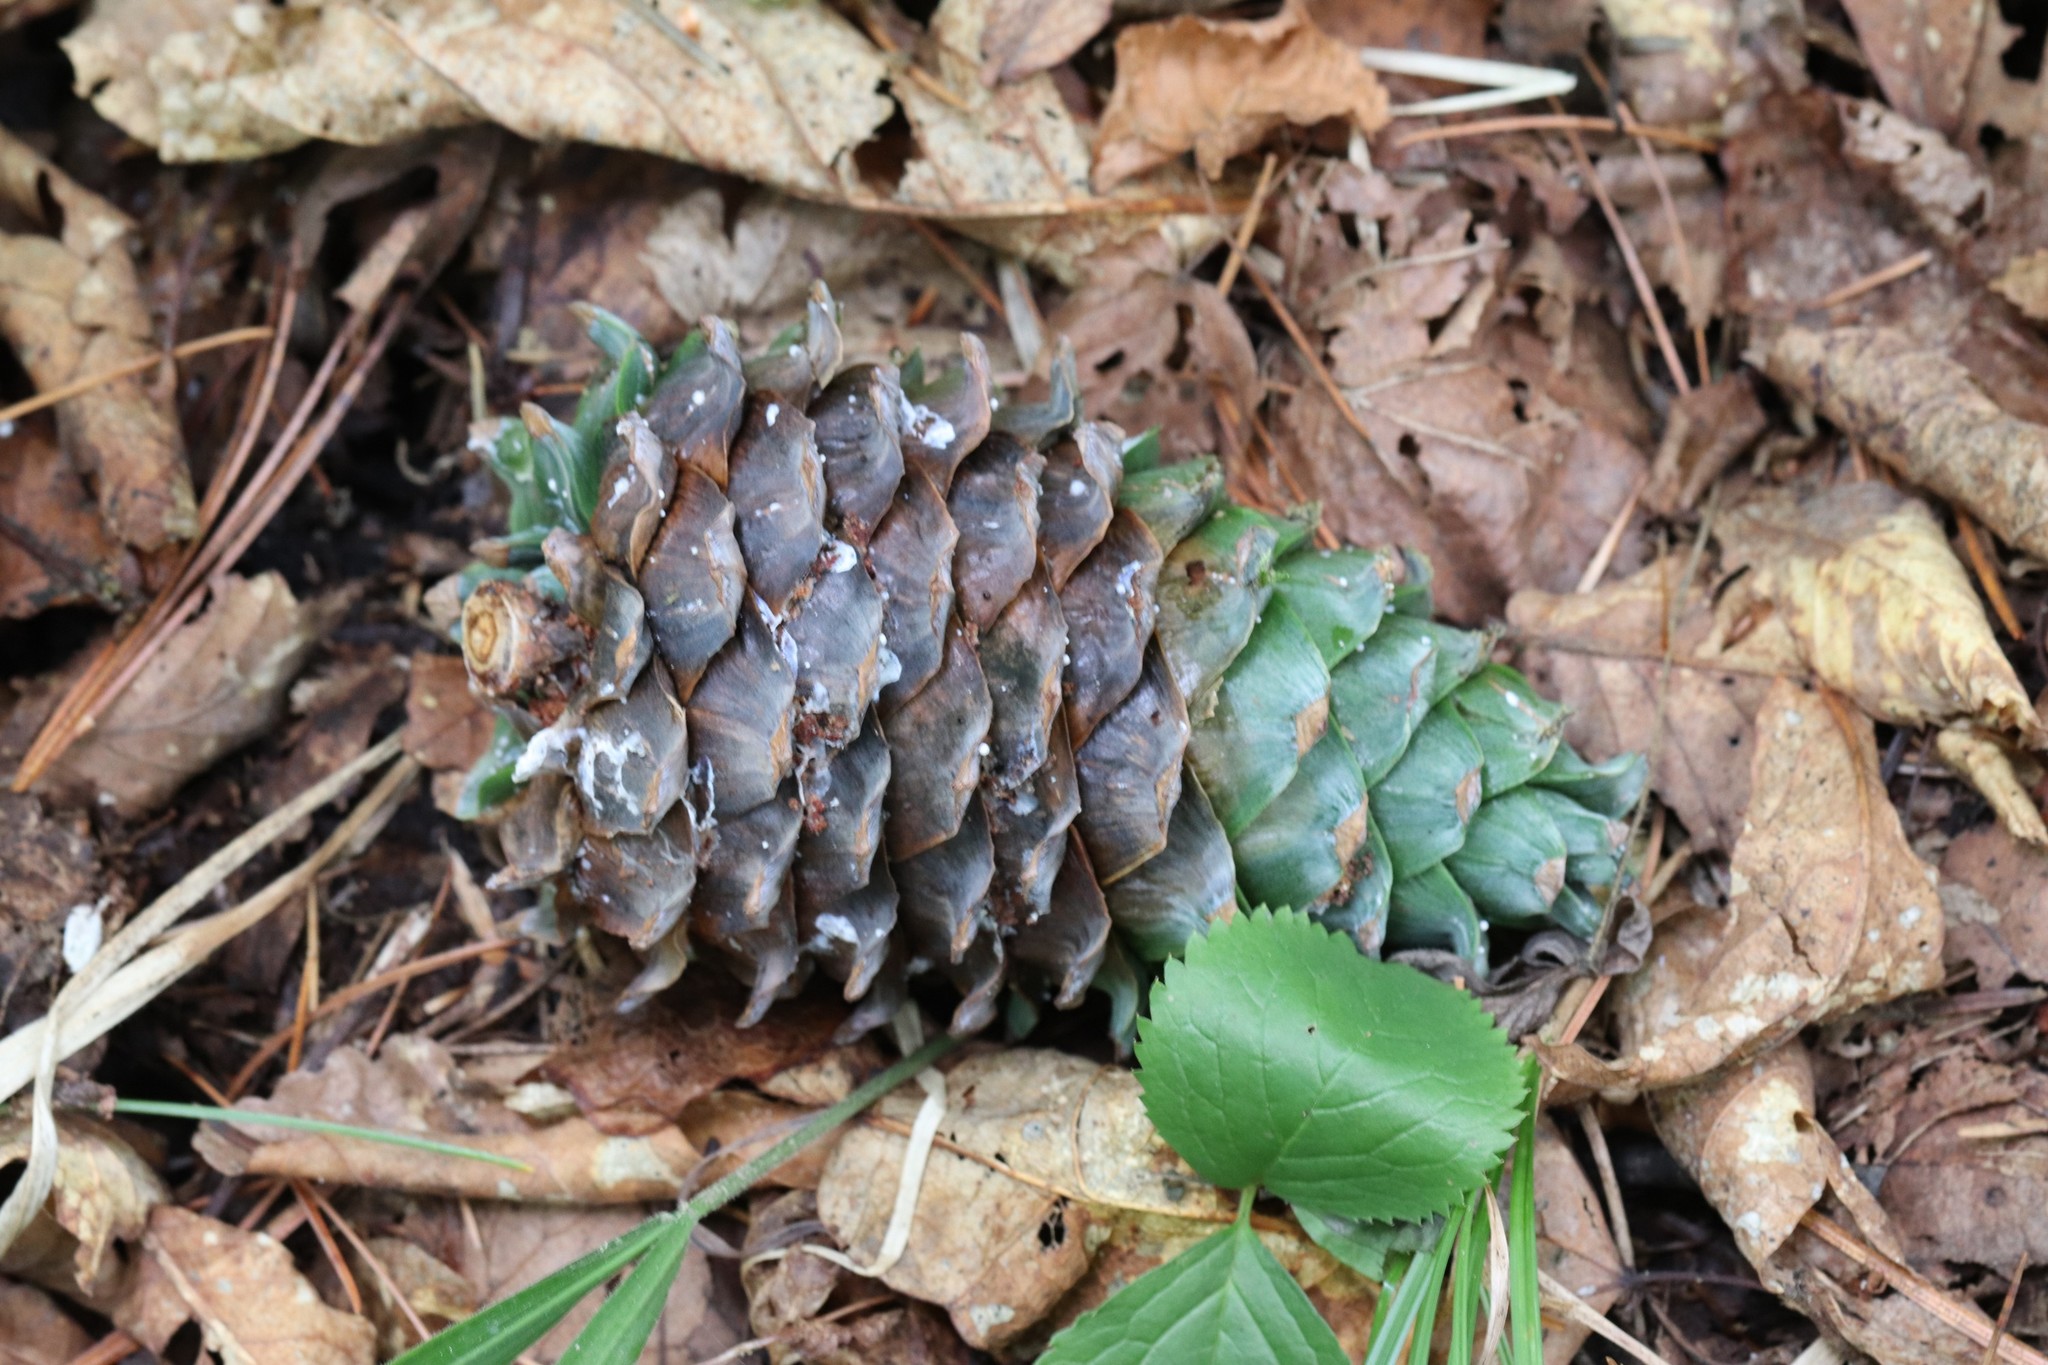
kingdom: Plantae
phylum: Tracheophyta
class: Pinopsida
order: Pinales
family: Pinaceae
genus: Pinus
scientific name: Pinus koraiensis
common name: Korean pine
